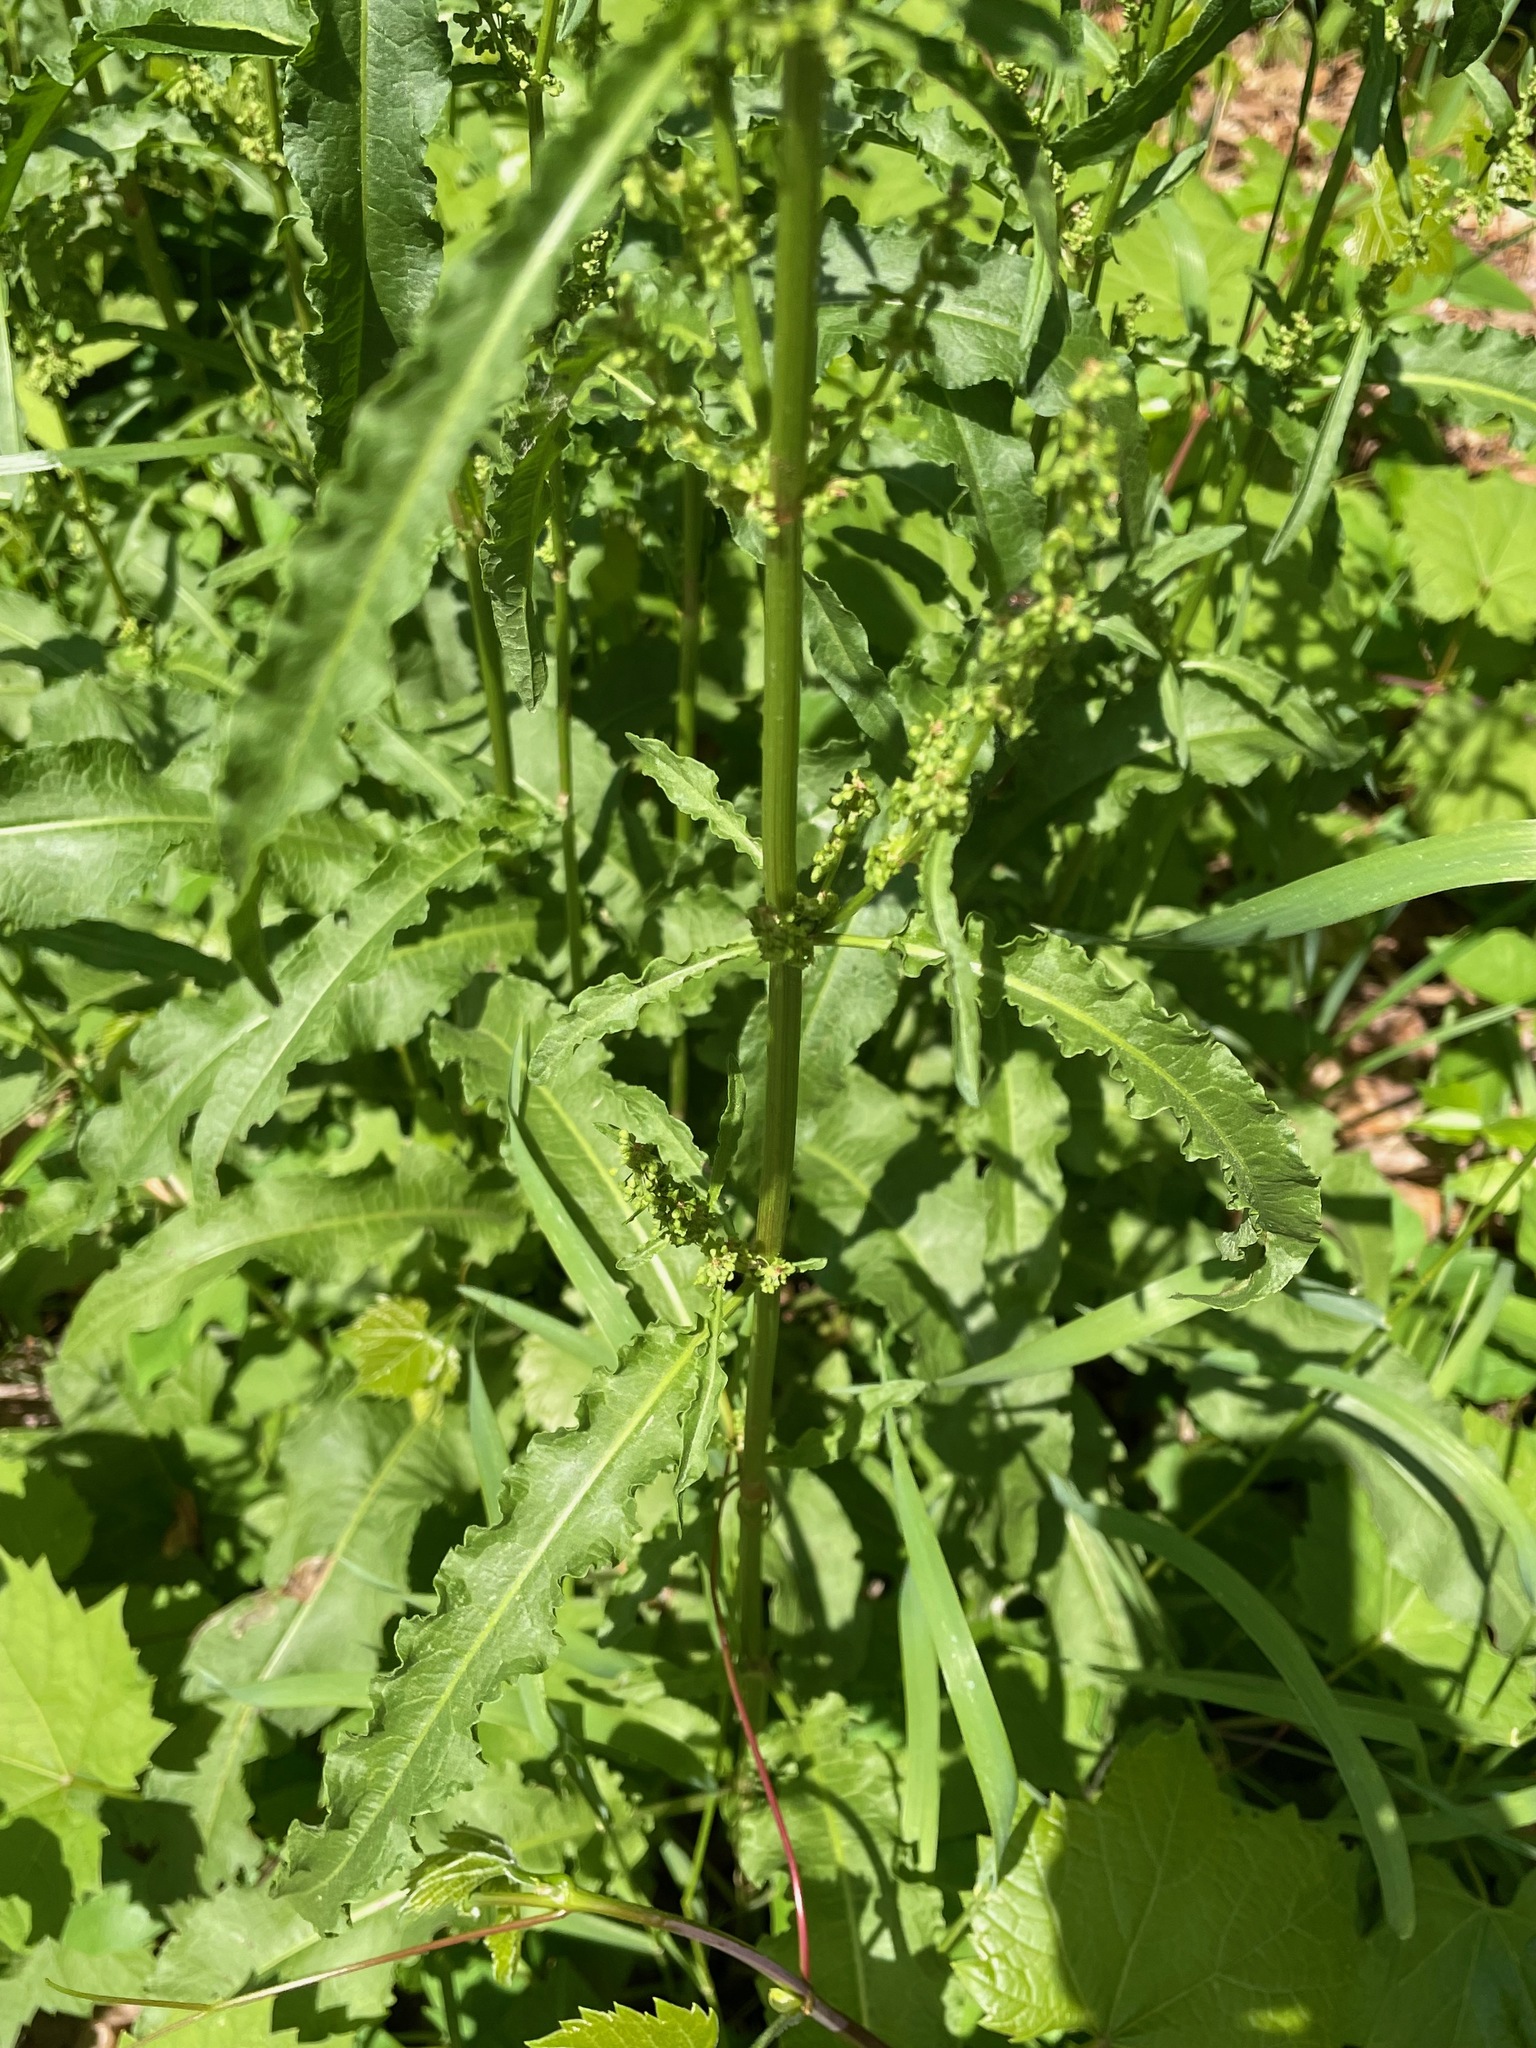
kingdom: Plantae
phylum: Tracheophyta
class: Magnoliopsida
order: Caryophyllales
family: Polygonaceae
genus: Rumex
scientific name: Rumex crispus
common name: Curled dock
